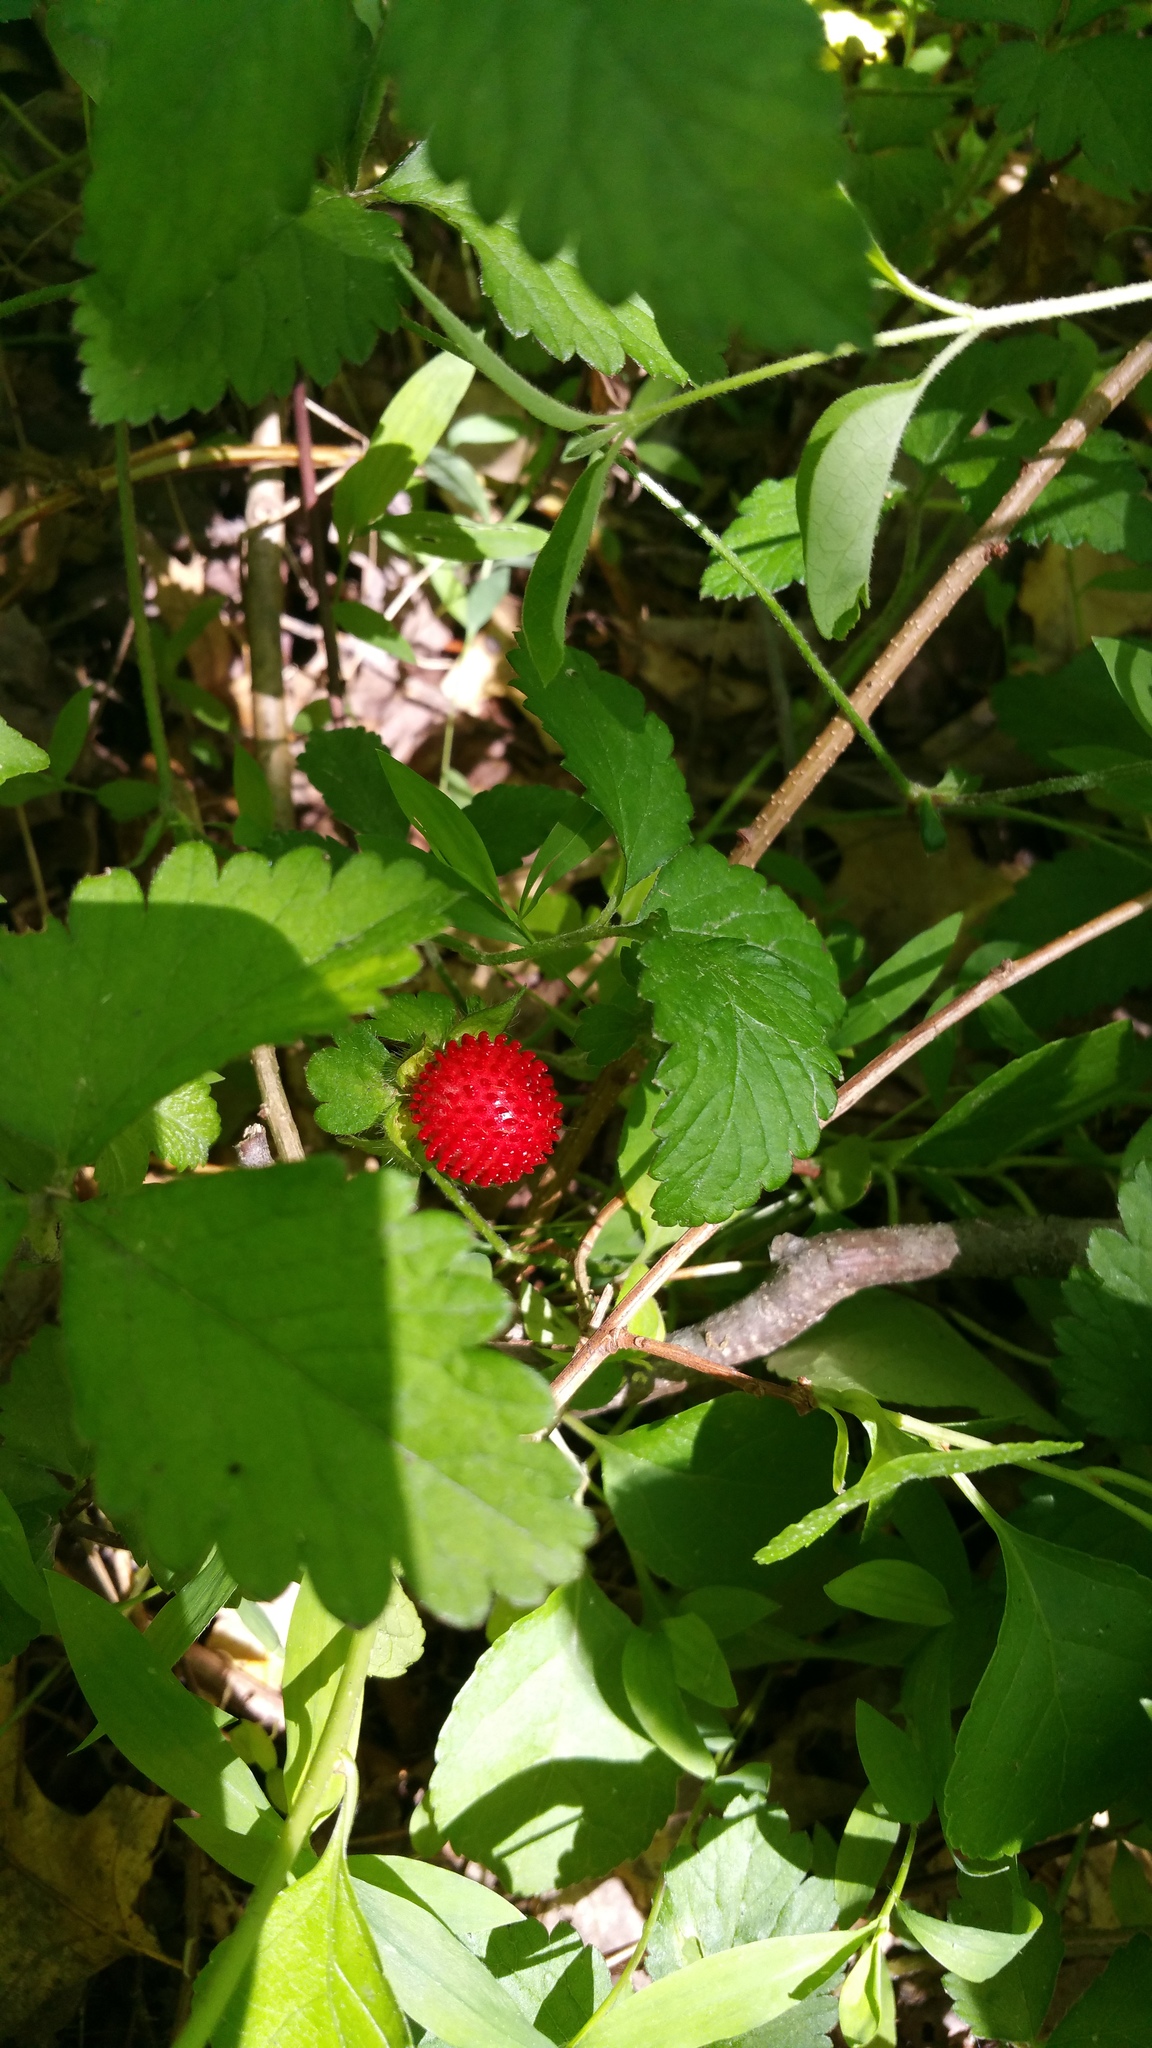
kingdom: Plantae
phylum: Tracheophyta
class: Magnoliopsida
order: Rosales
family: Rosaceae
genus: Potentilla
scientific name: Potentilla indica
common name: Yellow-flowered strawberry
